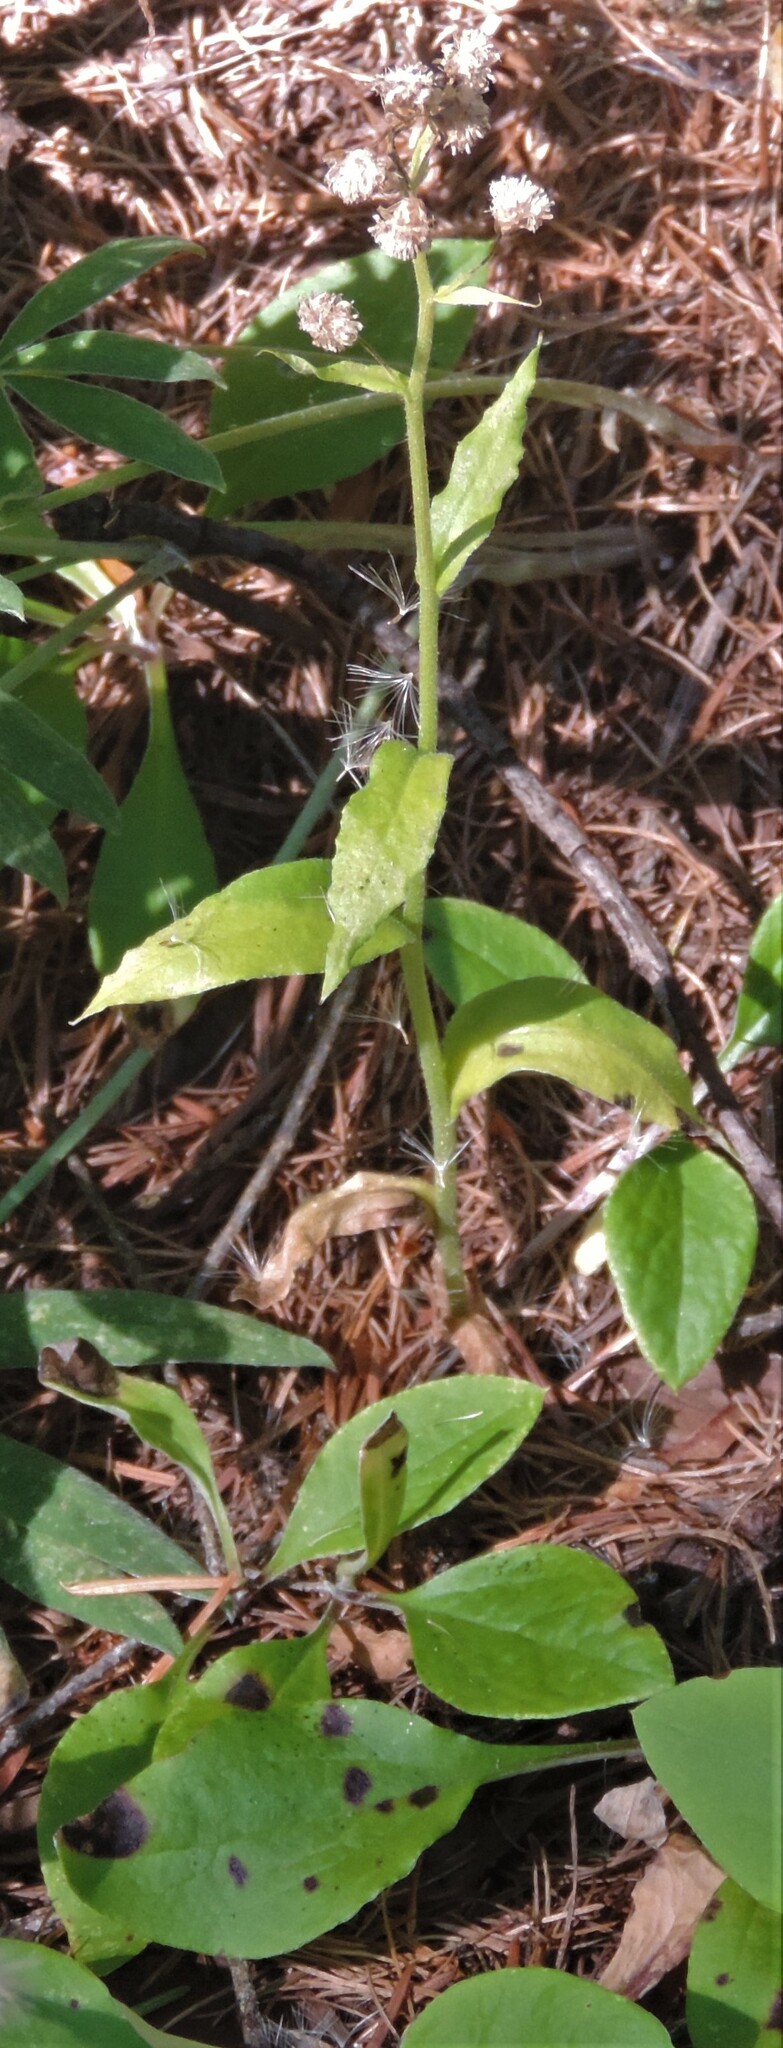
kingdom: Plantae
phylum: Tracheophyta
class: Magnoliopsida
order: Asterales
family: Asteraceae
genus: Antennaria
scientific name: Antennaria racemosa
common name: Racemose pussytoes
